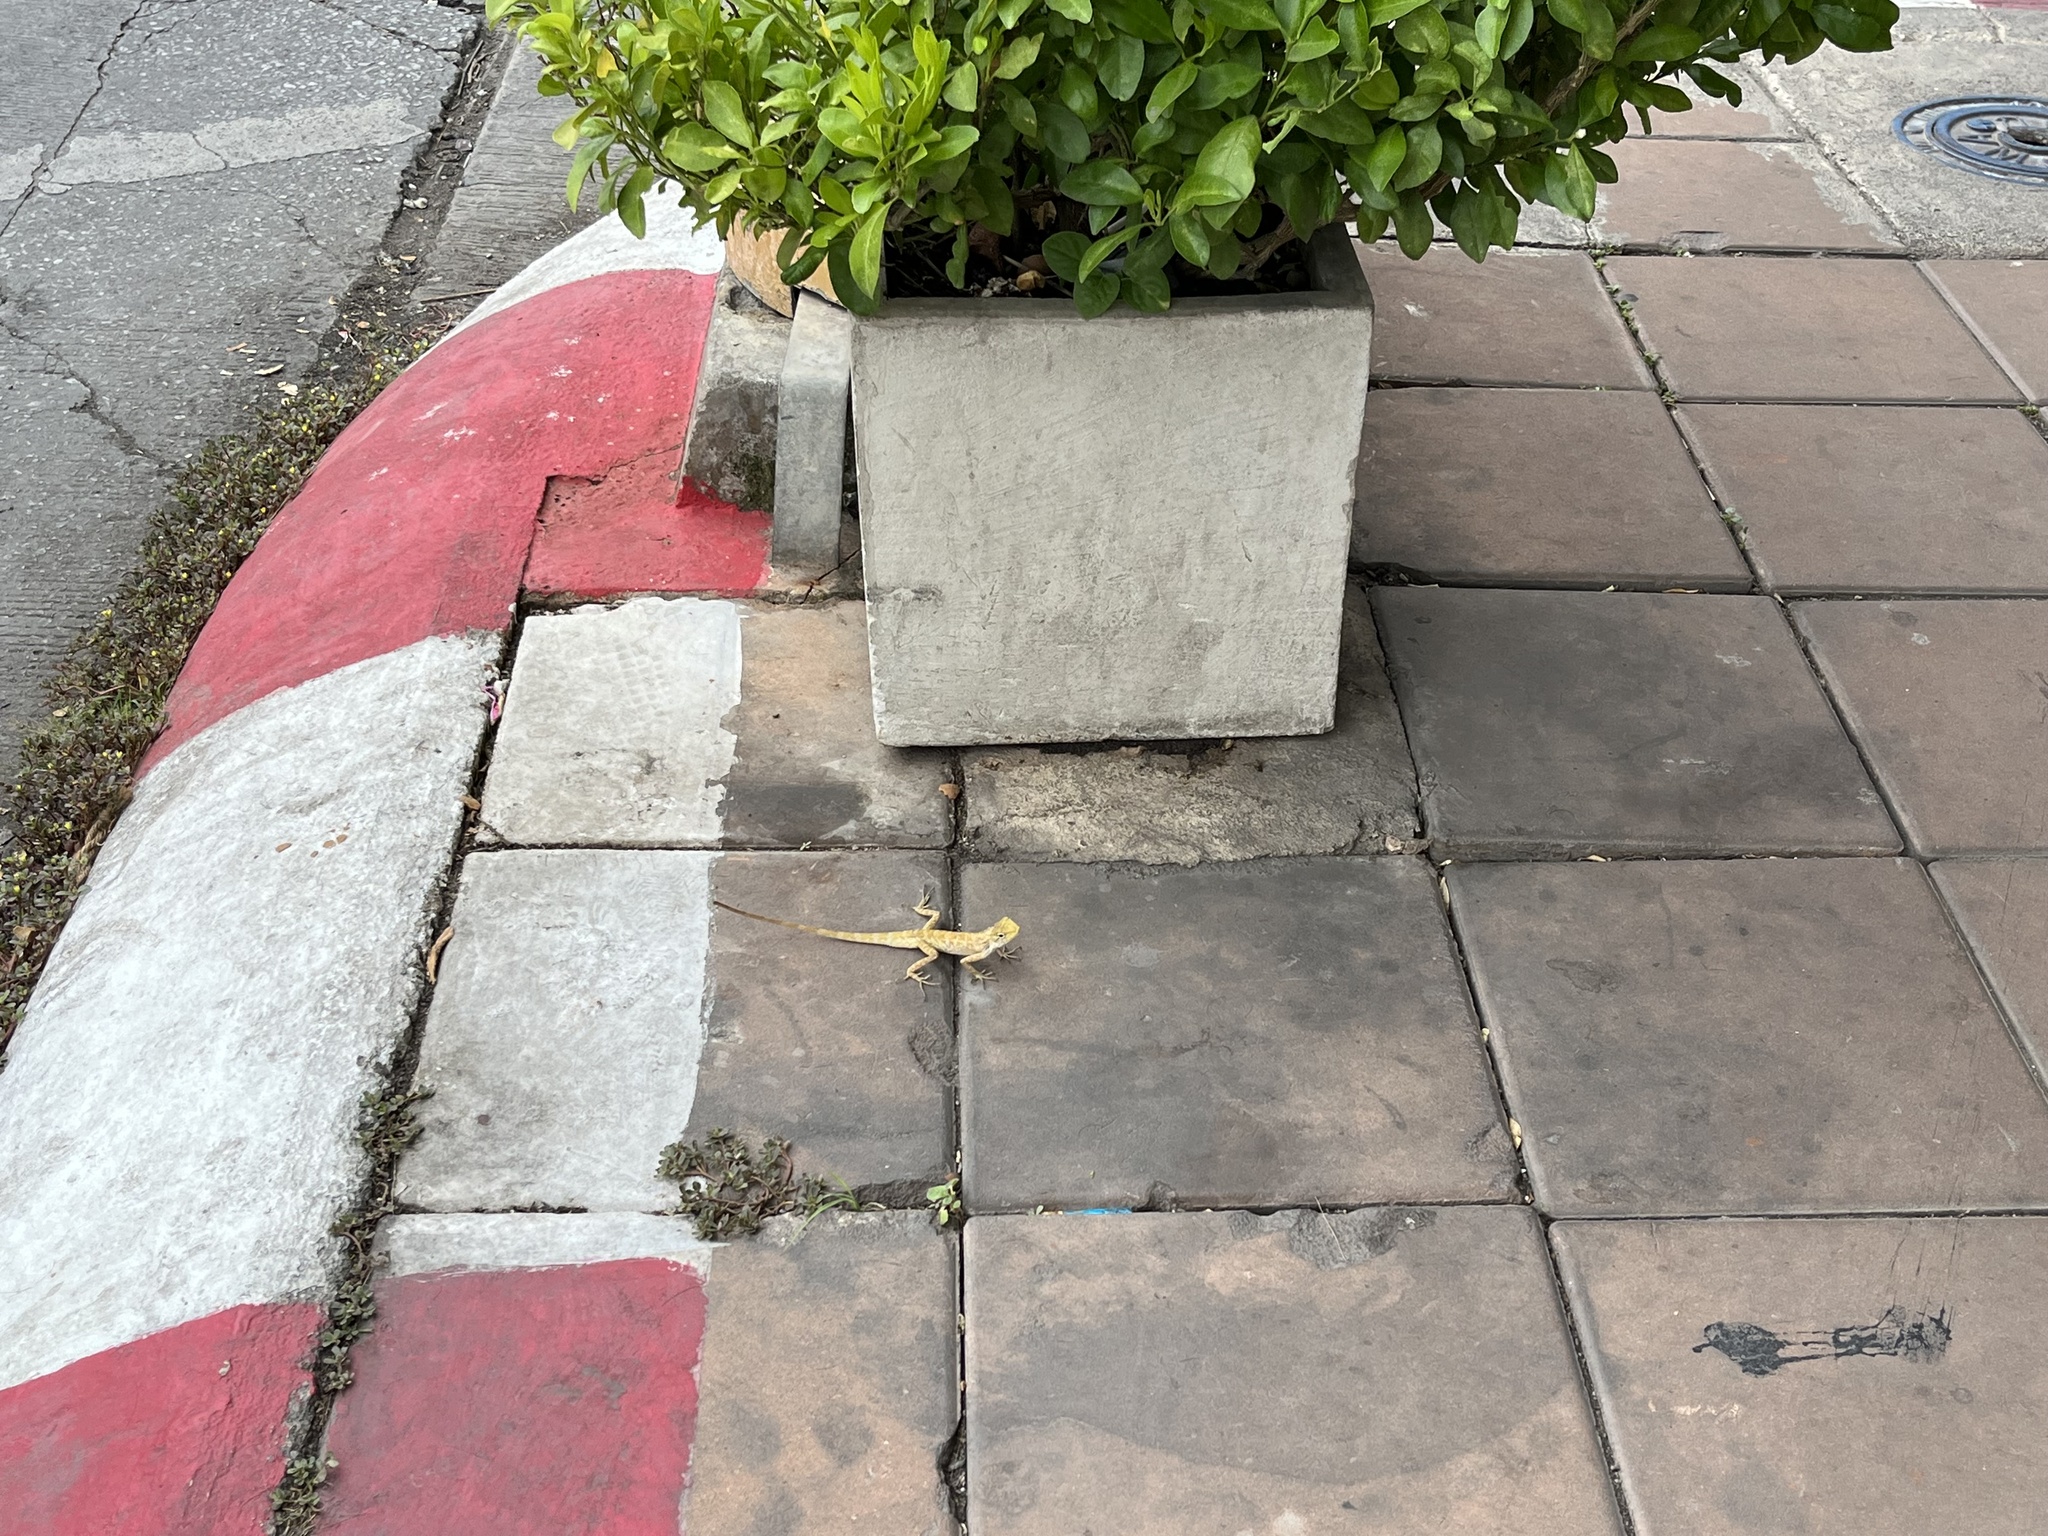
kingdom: Animalia
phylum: Chordata
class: Squamata
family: Agamidae
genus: Calotes
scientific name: Calotes versicolor
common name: Oriental garden lizard
